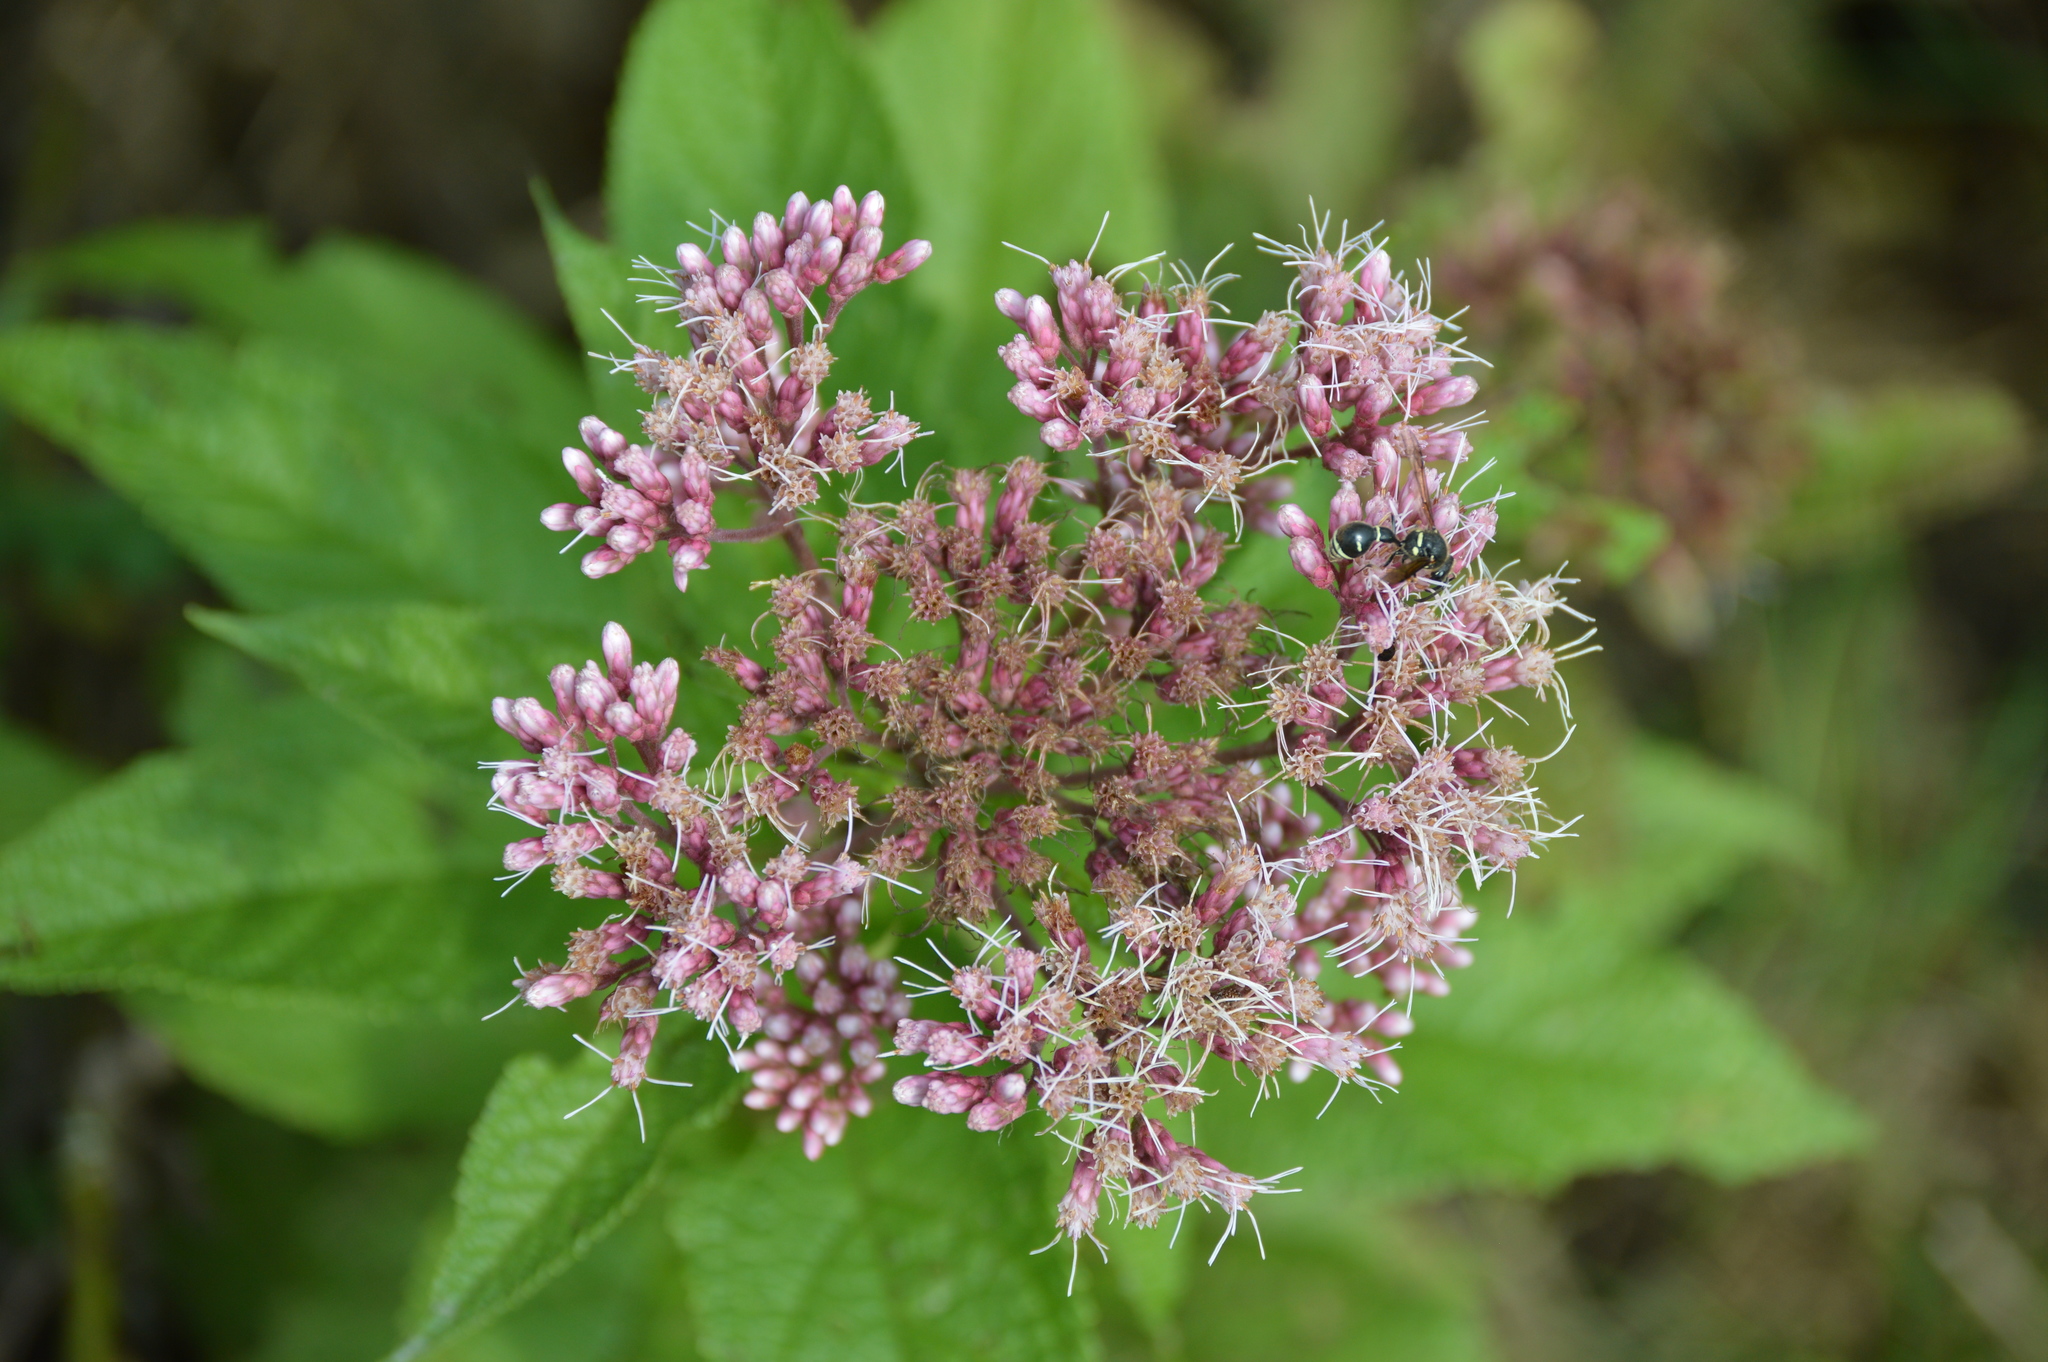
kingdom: Plantae
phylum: Tracheophyta
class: Magnoliopsida
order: Asterales
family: Asteraceae
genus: Eutrochium
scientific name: Eutrochium maculatum
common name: Spotted joe pye weed
